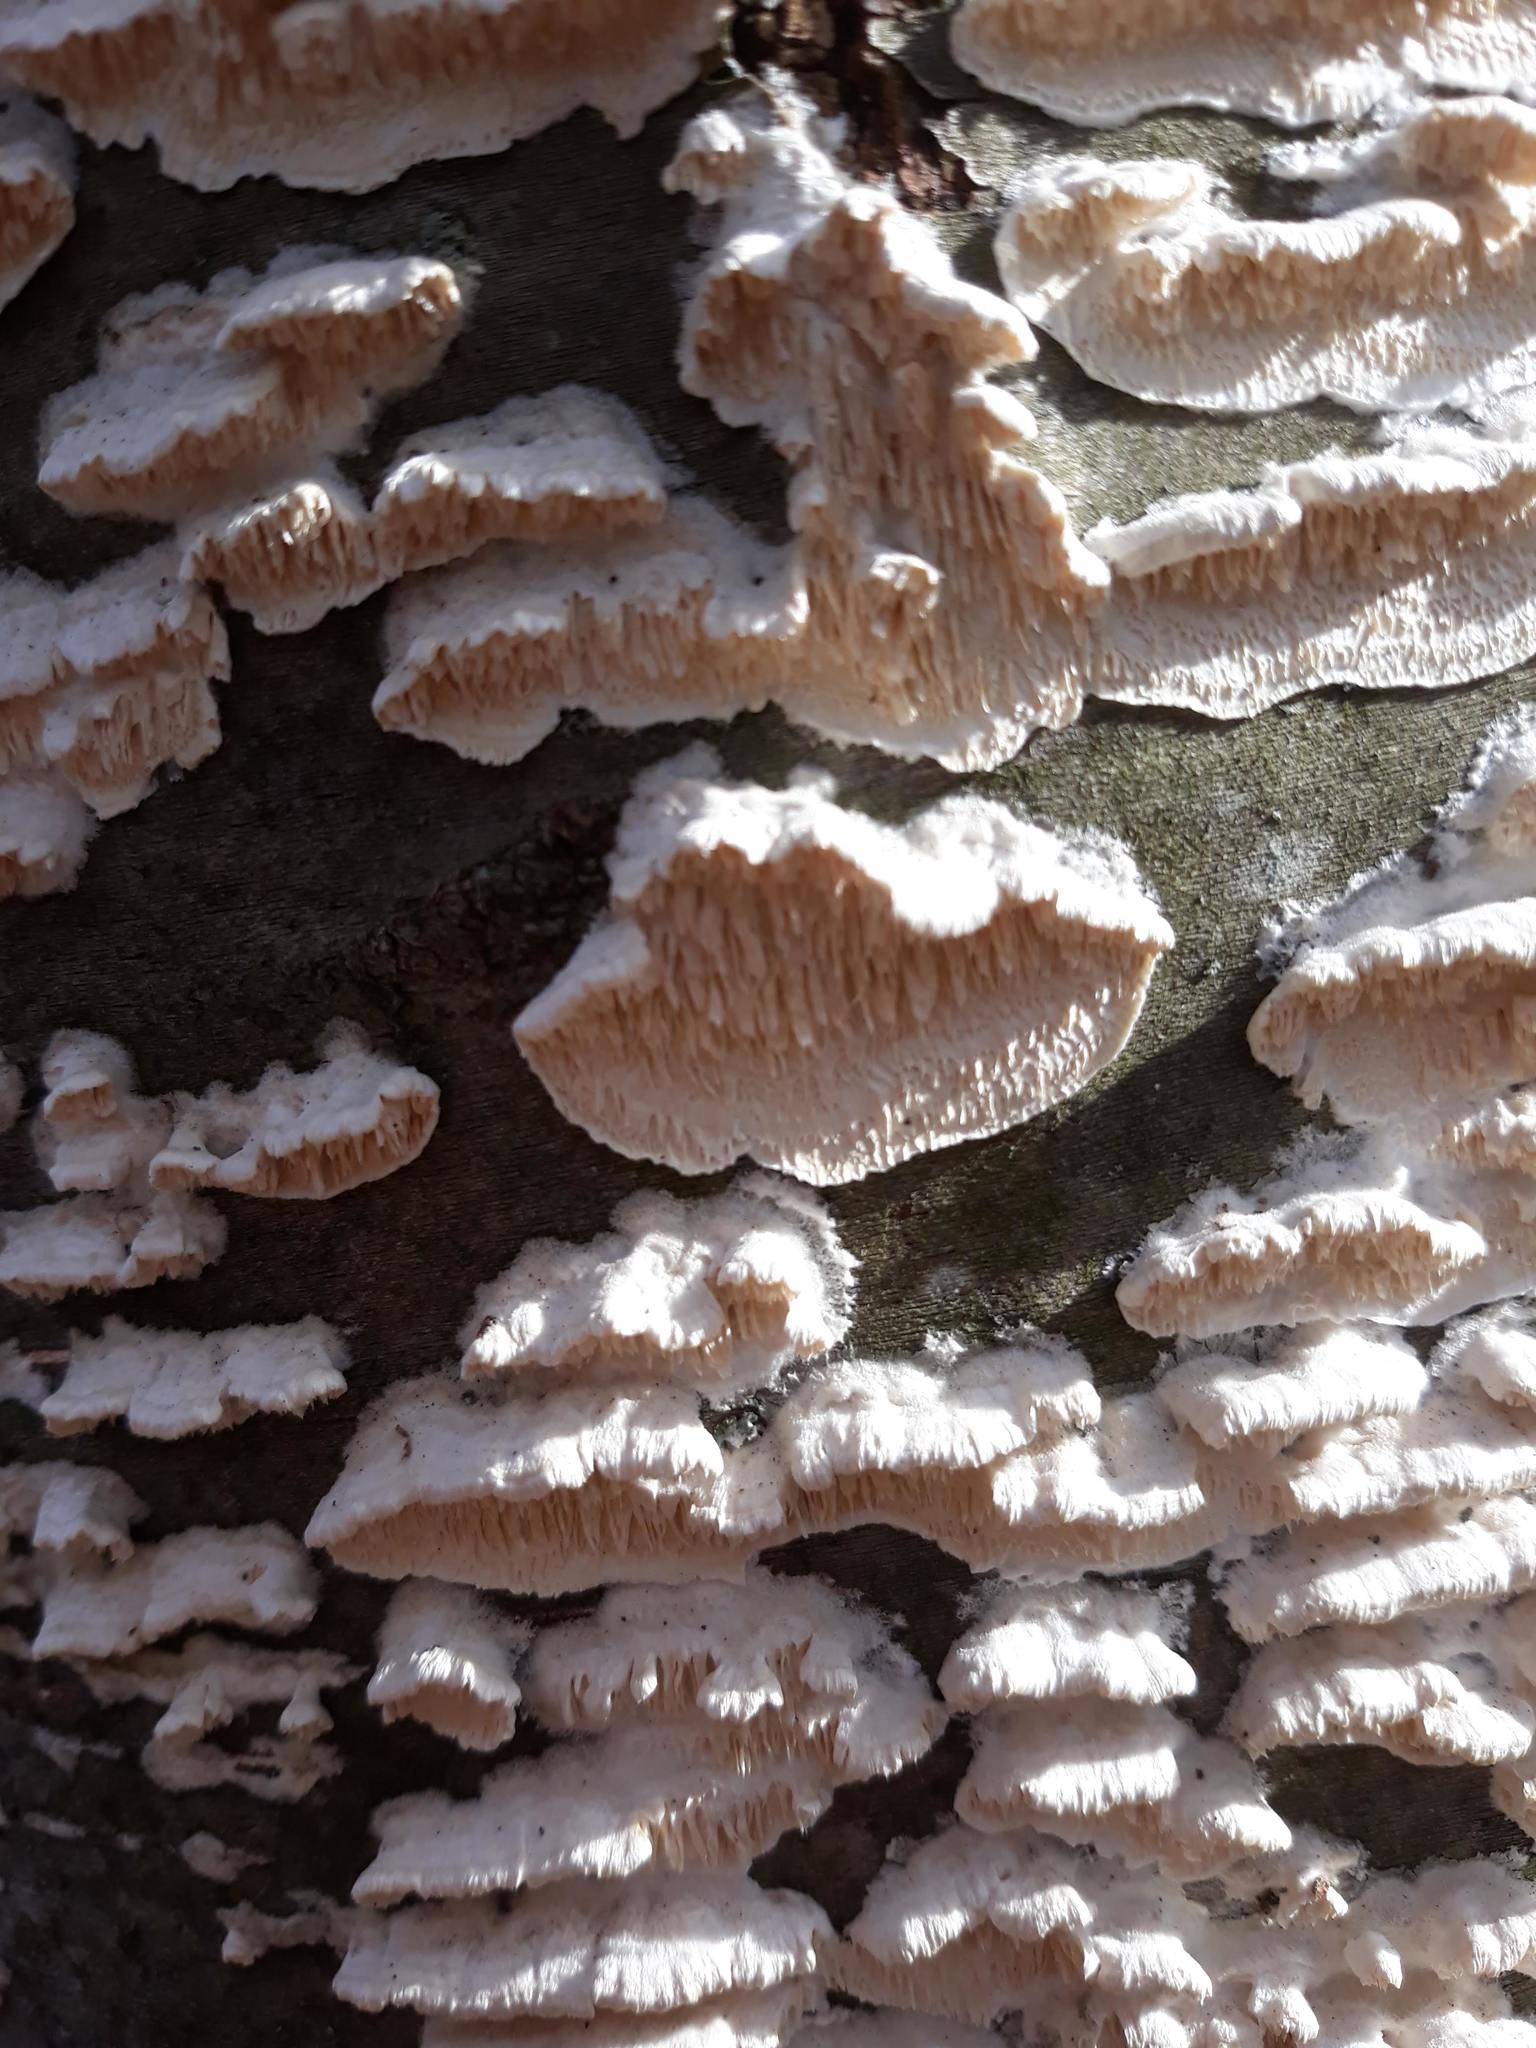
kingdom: Fungi
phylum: Basidiomycota
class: Agaricomycetes
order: Polyporales
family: Irpicaceae
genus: Irpex
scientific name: Irpex lacteus
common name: Milk-white toothed polypore
